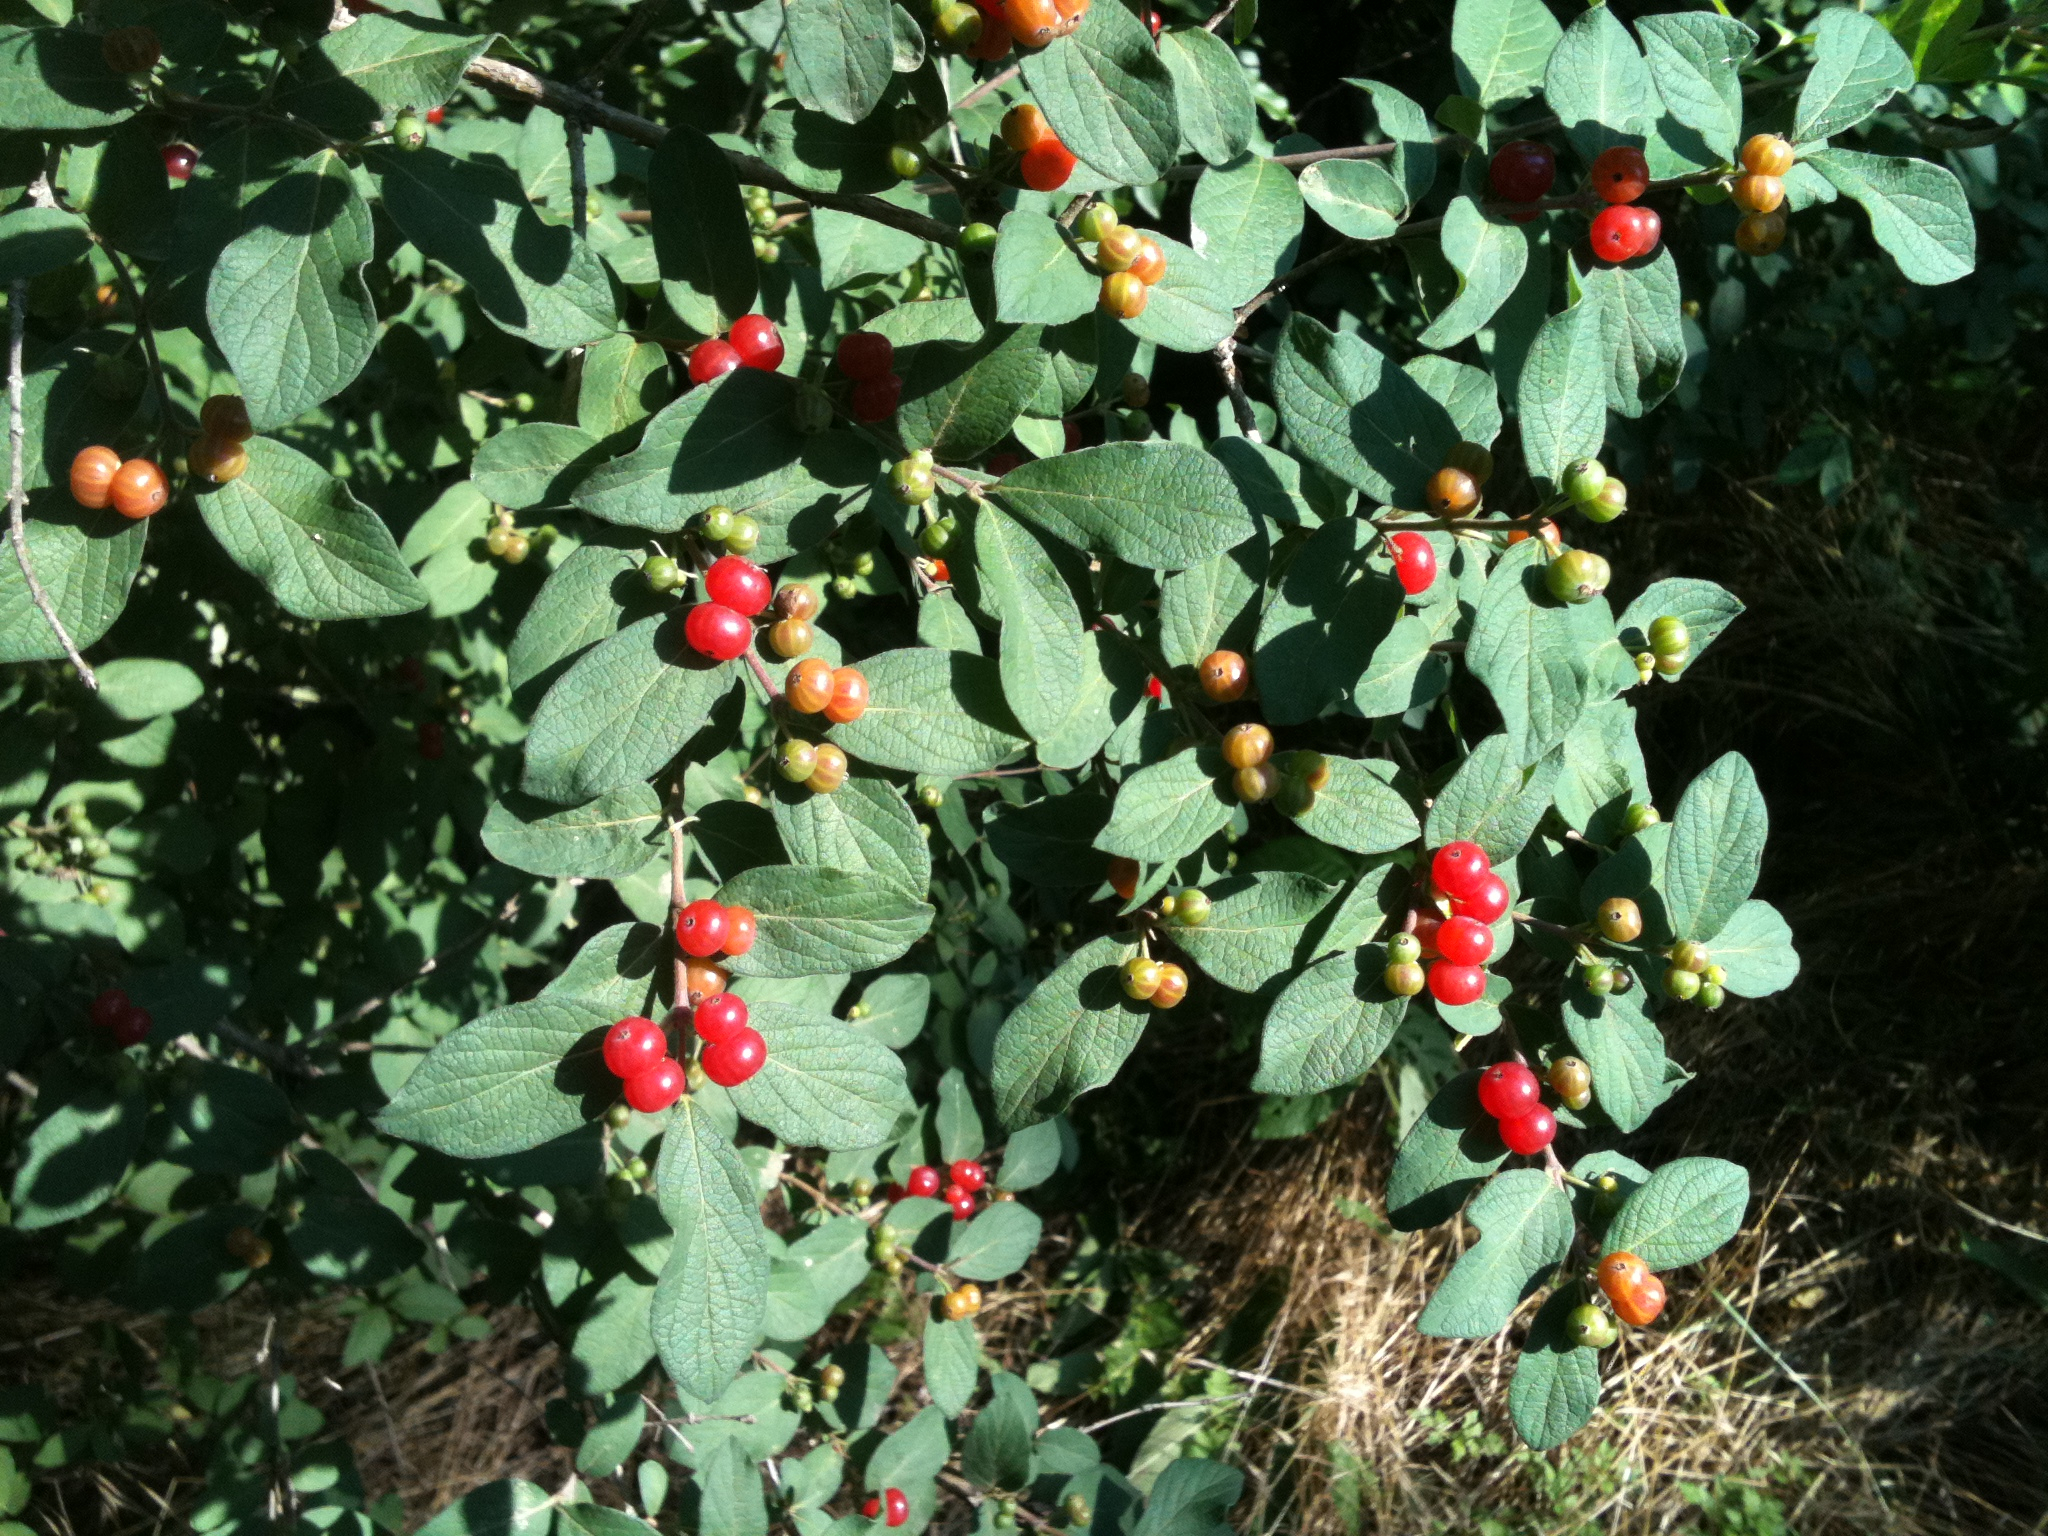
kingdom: Plantae
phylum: Tracheophyta
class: Magnoliopsida
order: Dipsacales
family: Caprifoliaceae
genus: Lonicera
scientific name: Lonicera morrowii
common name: Morrow's honeysuckle
